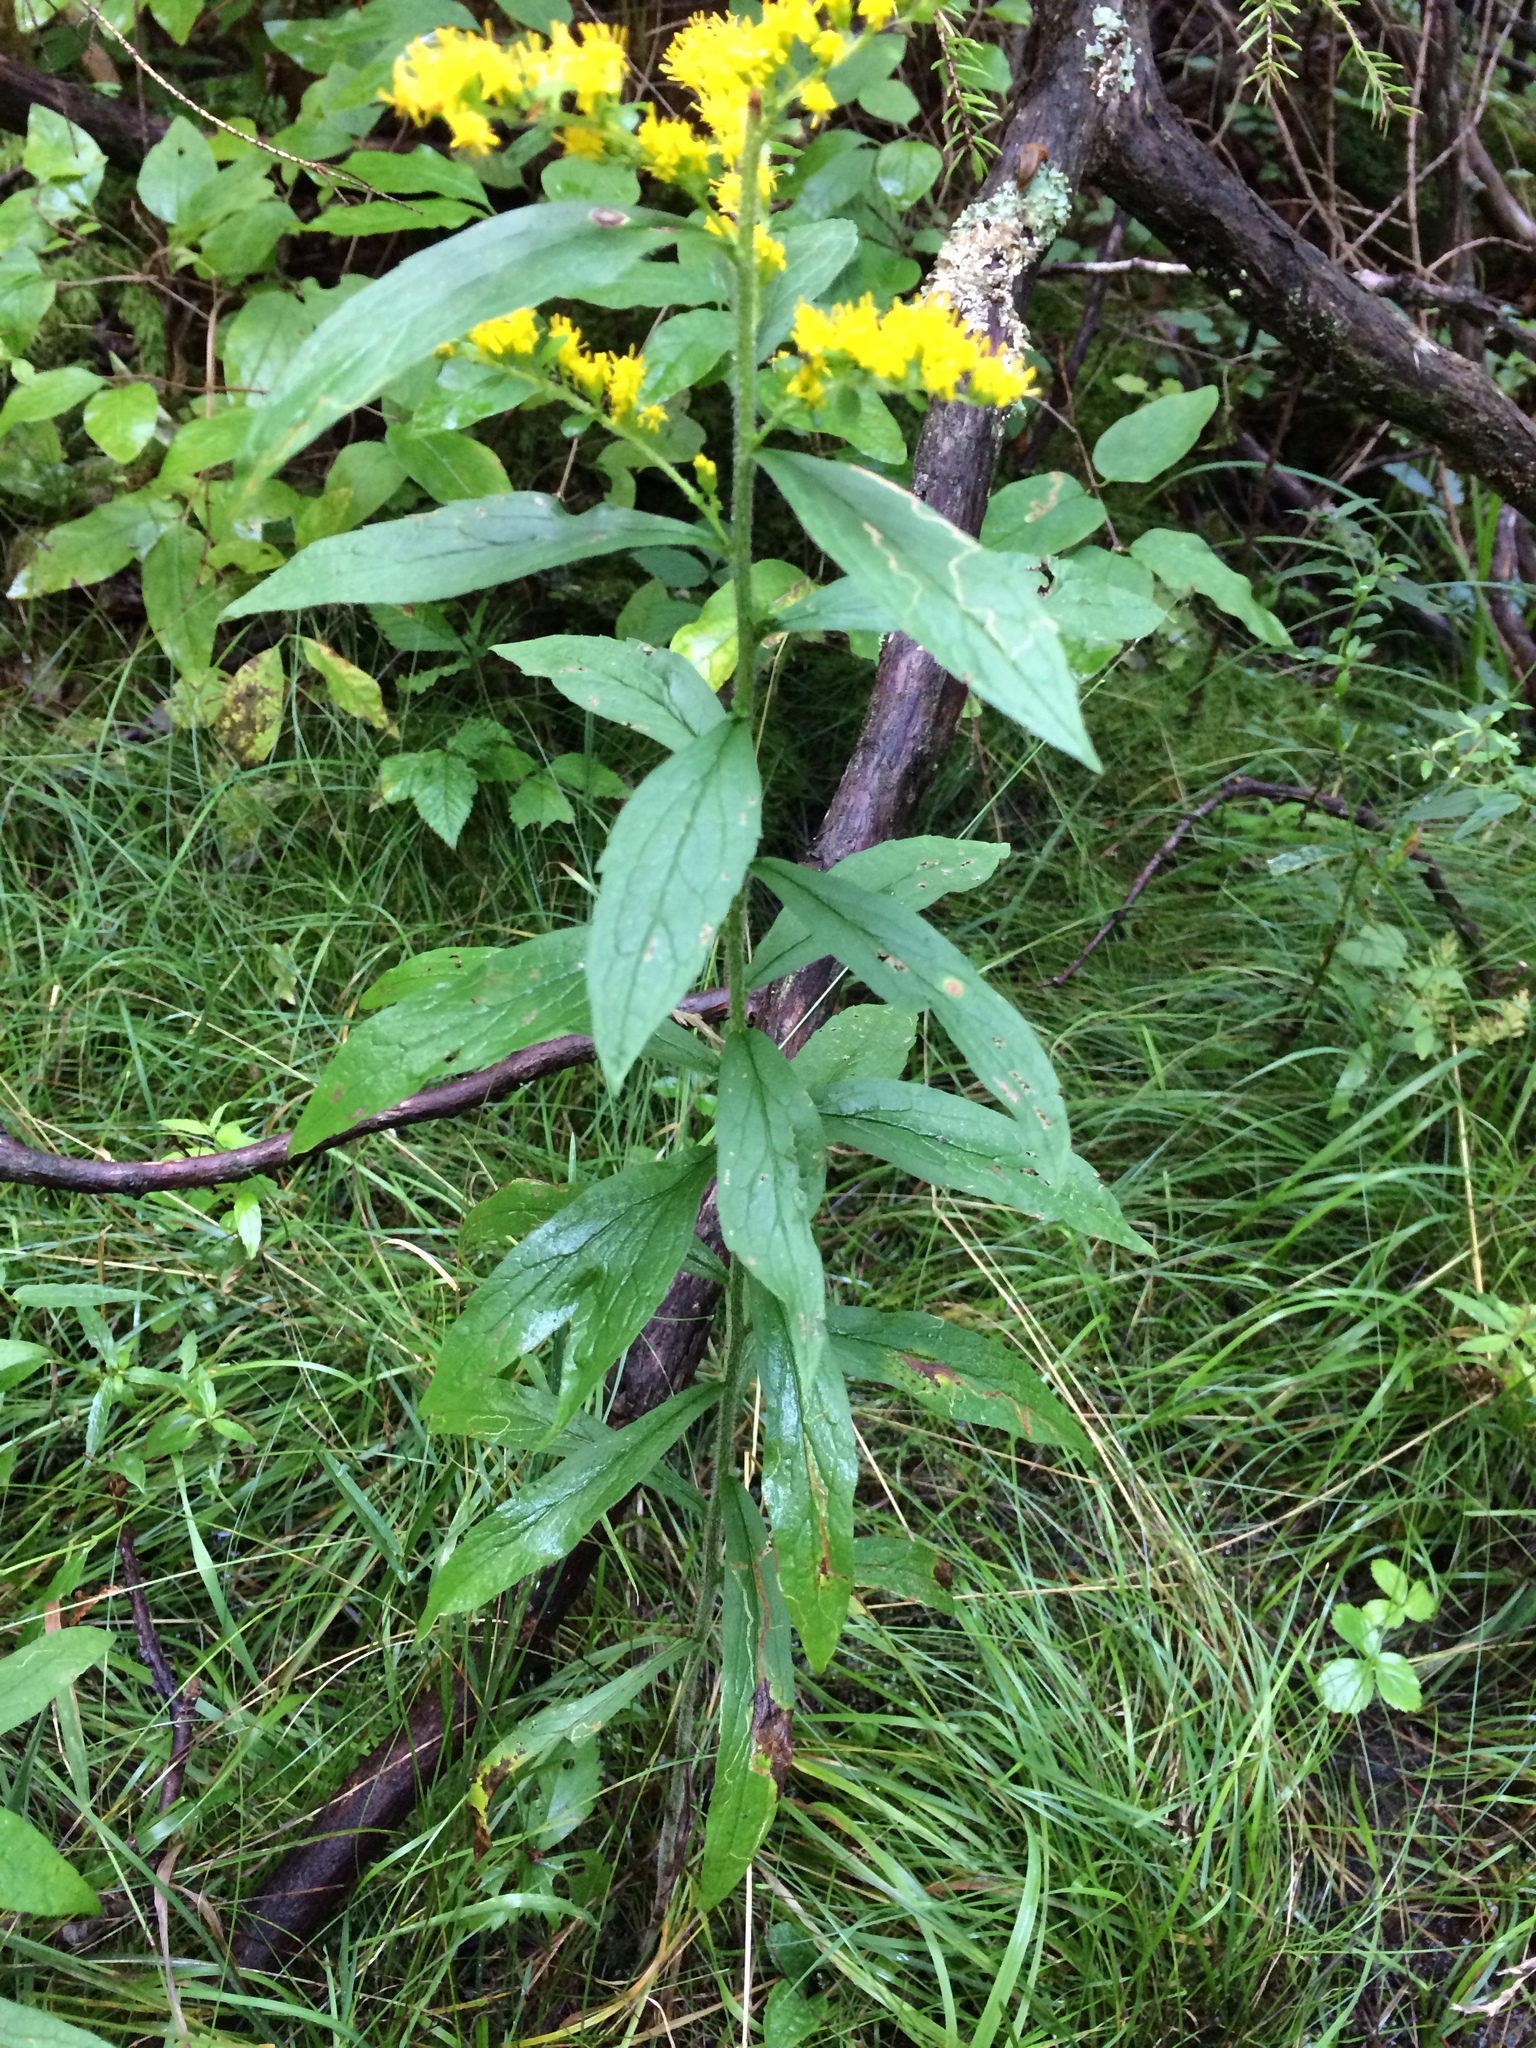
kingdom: Plantae
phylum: Tracheophyta
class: Magnoliopsida
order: Asterales
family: Asteraceae
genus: Solidago
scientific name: Solidago rugosa
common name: Rough-stemmed goldenrod
